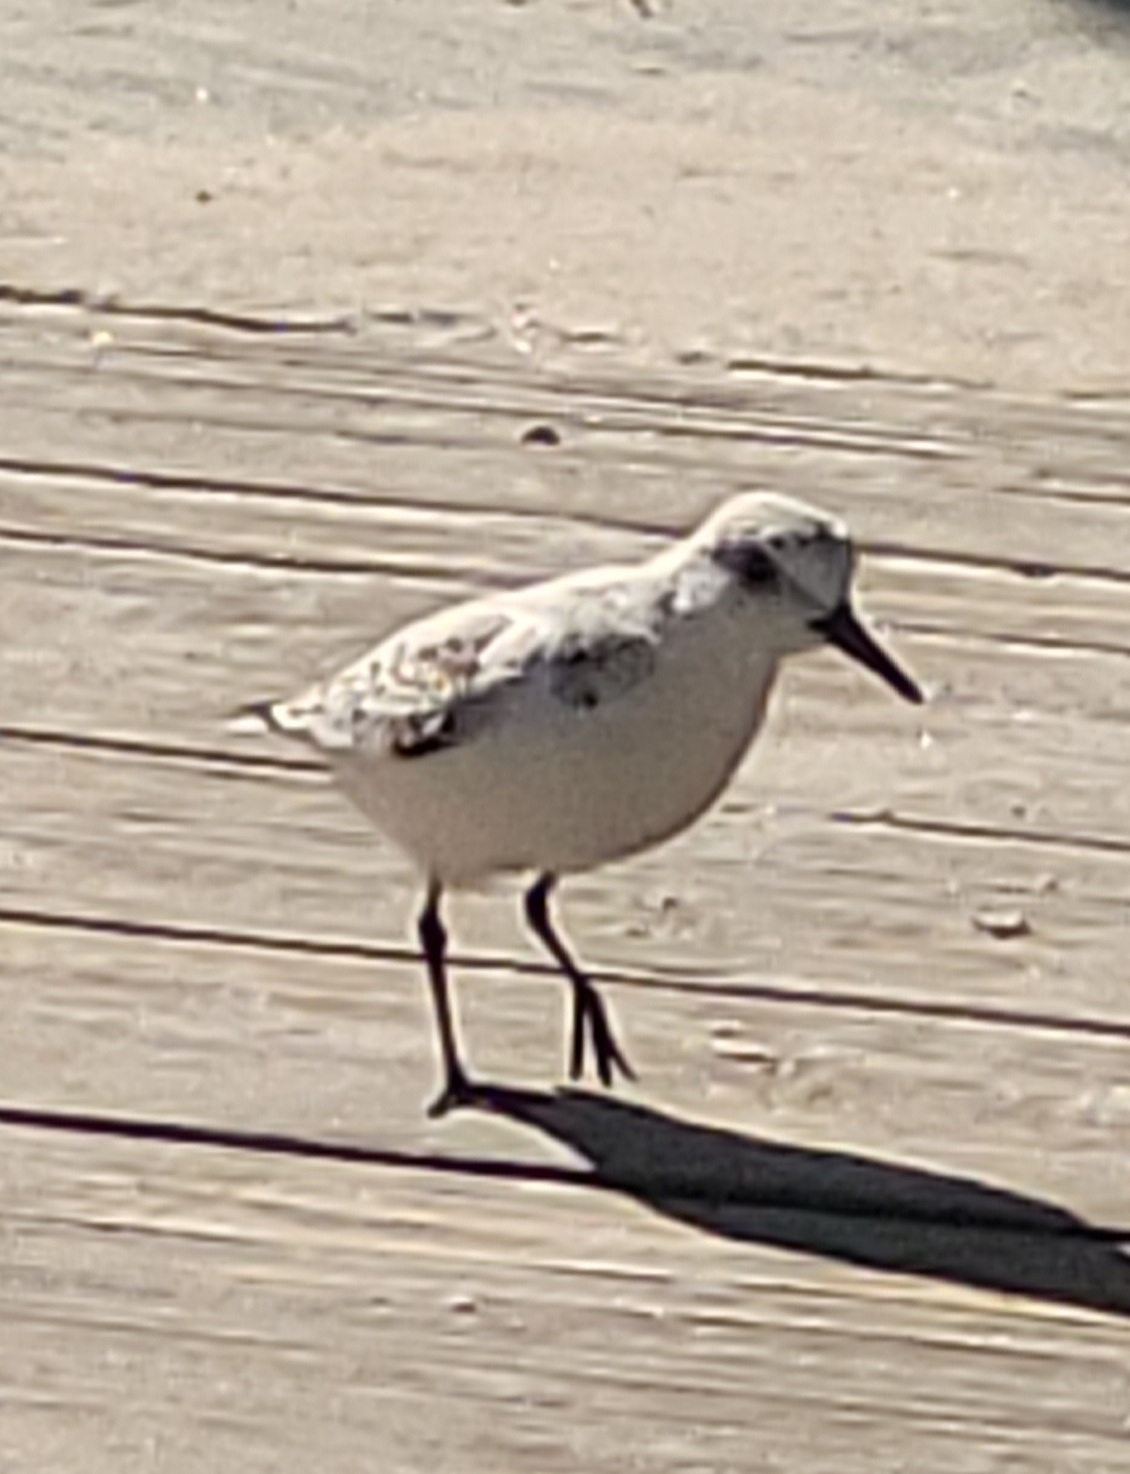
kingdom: Animalia
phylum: Chordata
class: Aves
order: Charadriiformes
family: Scolopacidae
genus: Calidris
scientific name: Calidris alba
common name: Sanderling
